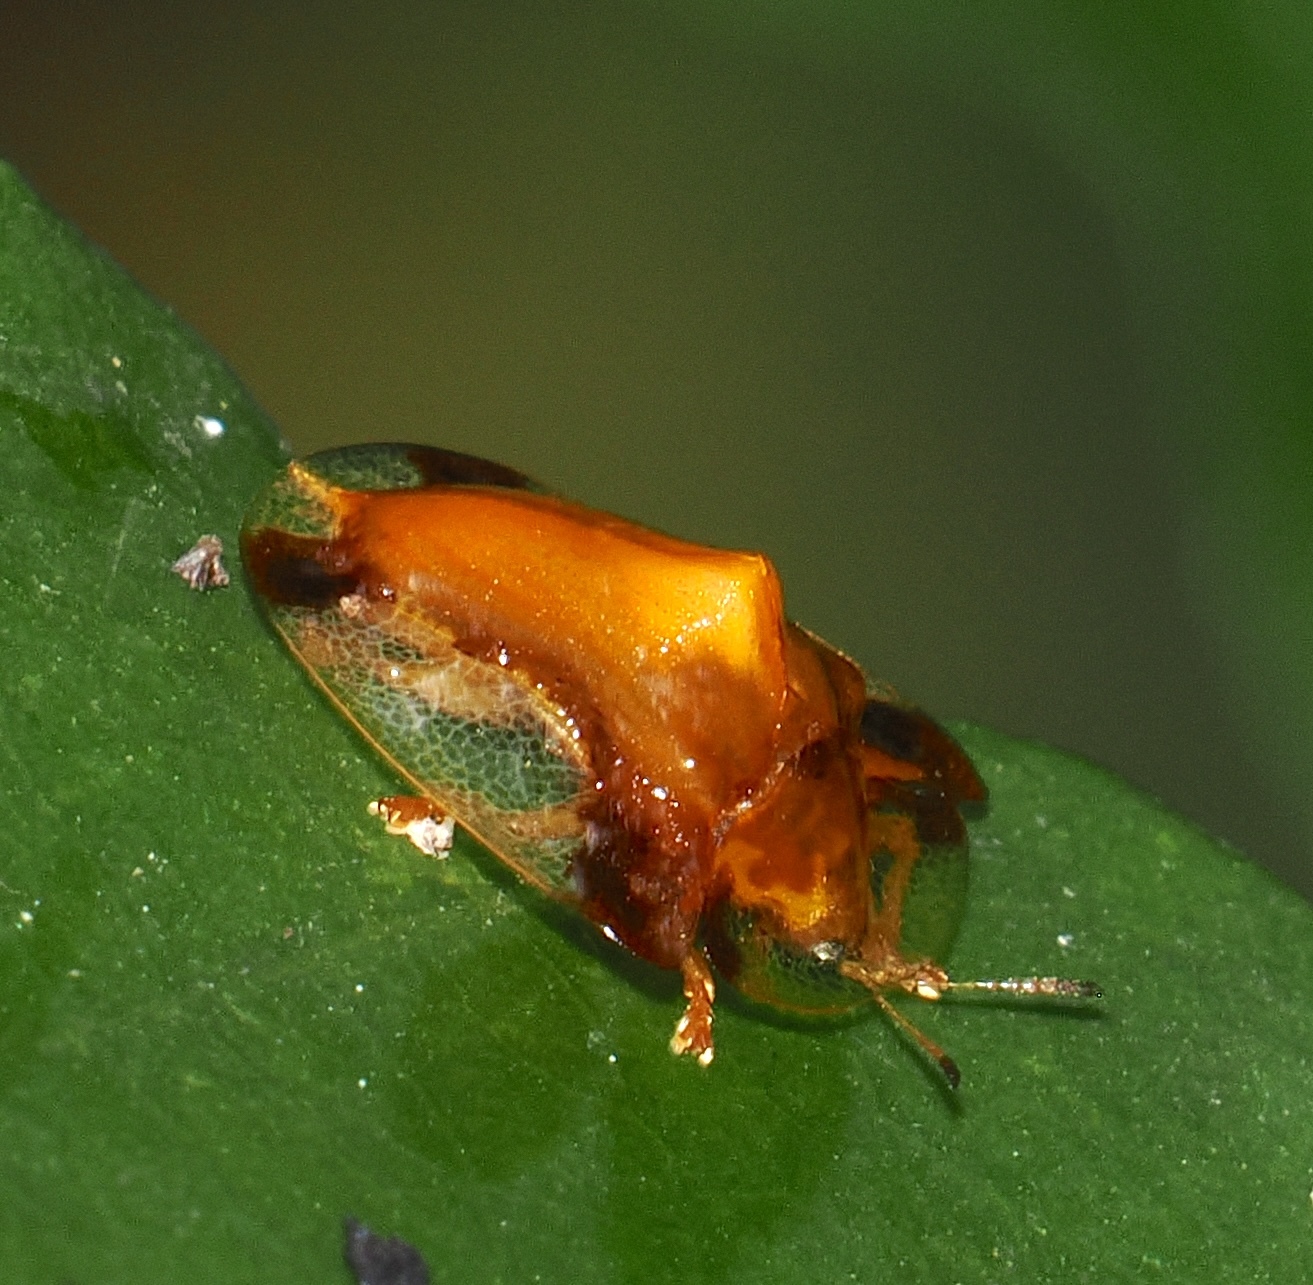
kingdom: Animalia
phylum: Arthropoda
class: Insecta
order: Coleoptera
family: Chrysomelidae
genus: Syngambria
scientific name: Syngambria andreae
